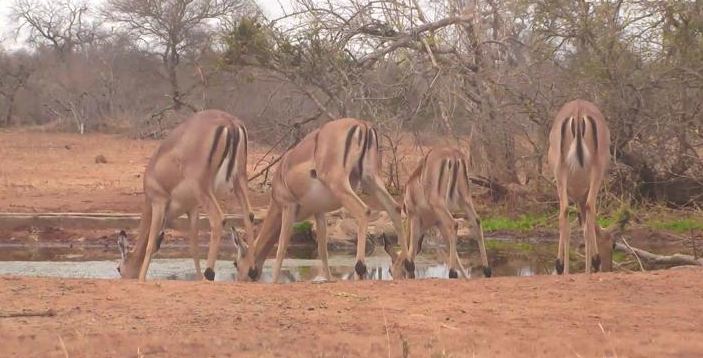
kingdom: Animalia
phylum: Chordata
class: Mammalia
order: Artiodactyla
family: Bovidae
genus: Aepyceros
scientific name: Aepyceros melampus
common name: Impala
